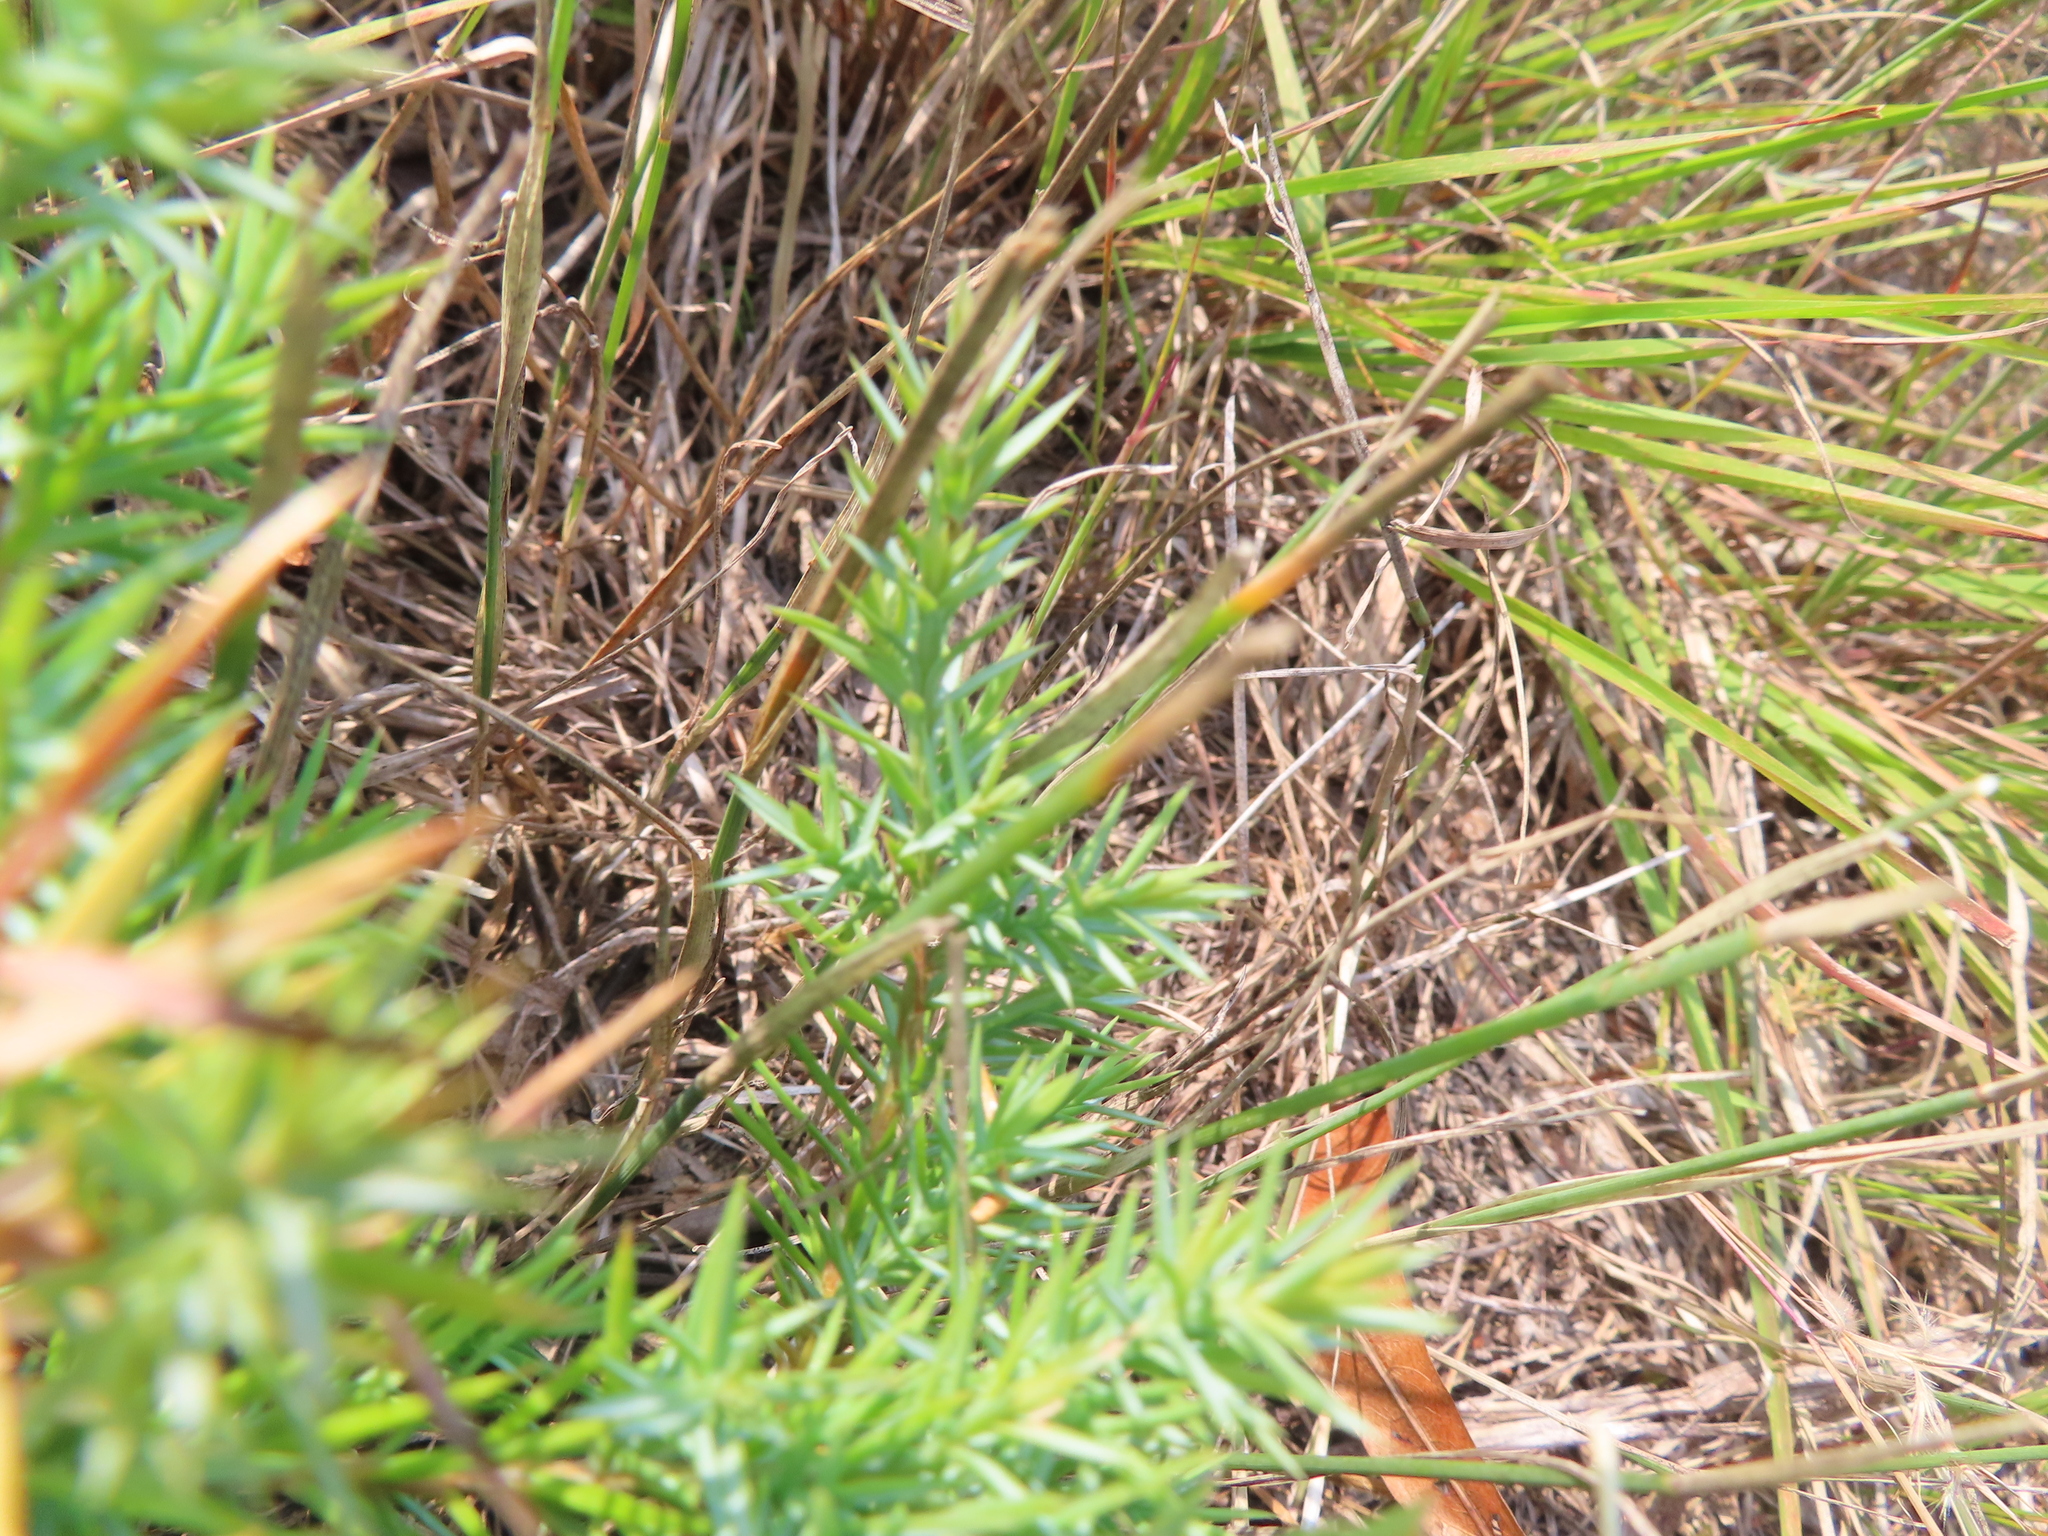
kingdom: Plantae
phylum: Tracheophyta
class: Pinopsida
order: Pinales
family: Cupressaceae
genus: Juniperus
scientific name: Juniperus communis
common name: Common juniper
